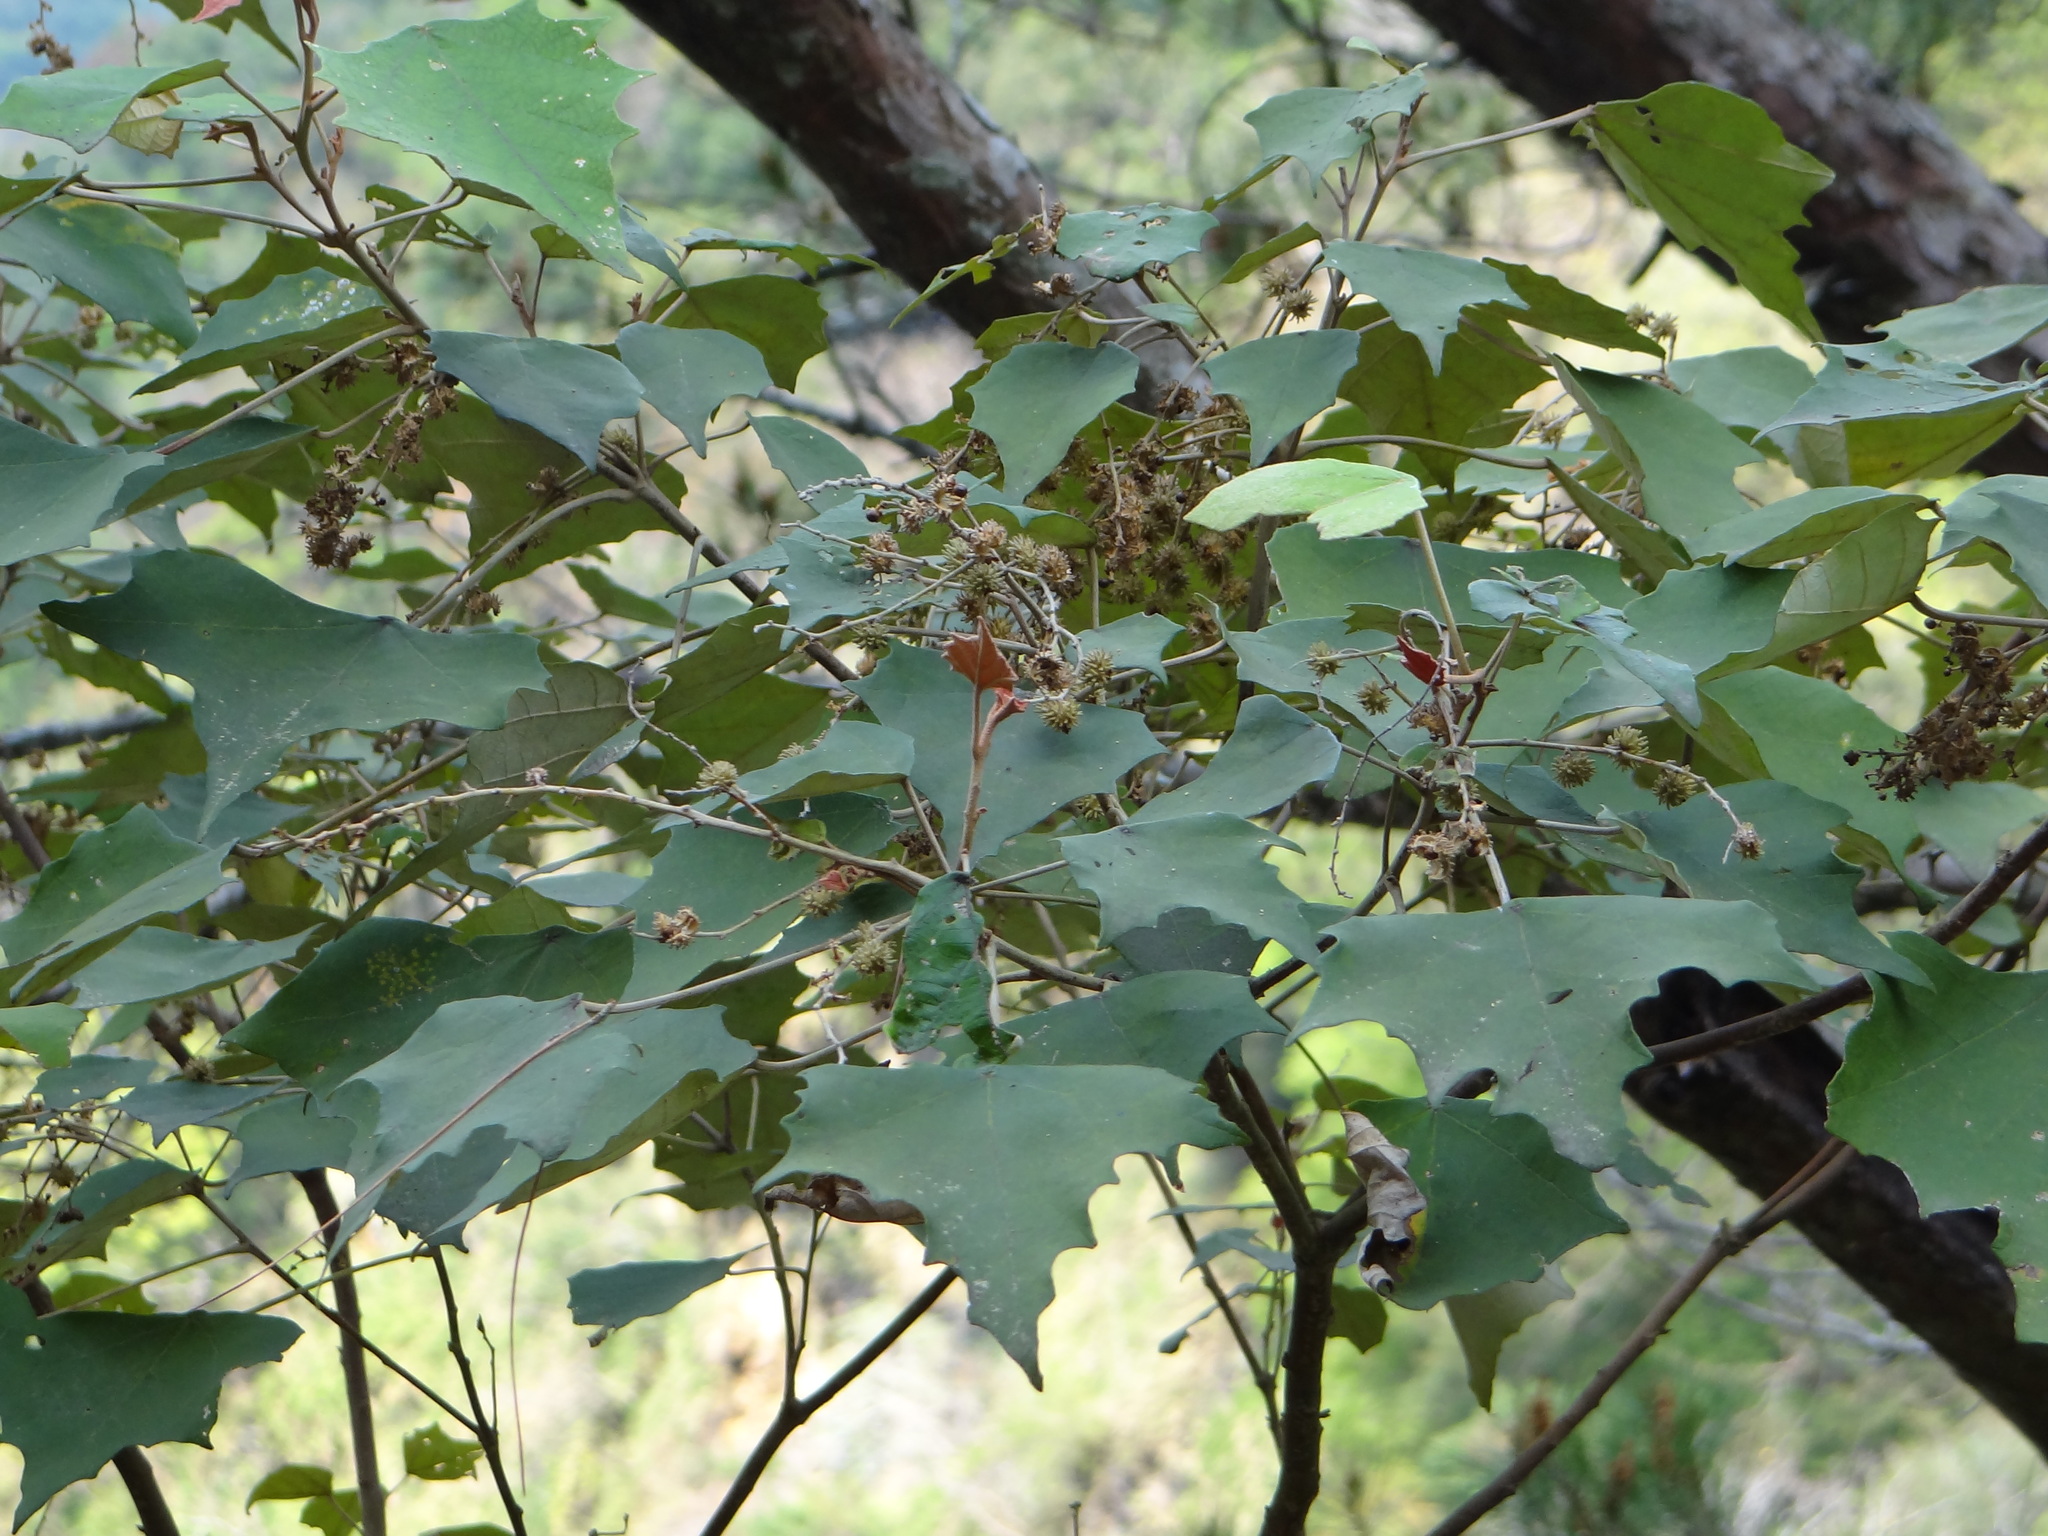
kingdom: Plantae
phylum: Tracheophyta
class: Magnoliopsida
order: Malpighiales
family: Euphorbiaceae
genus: Mallotus
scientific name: Mallotus paniculatus
